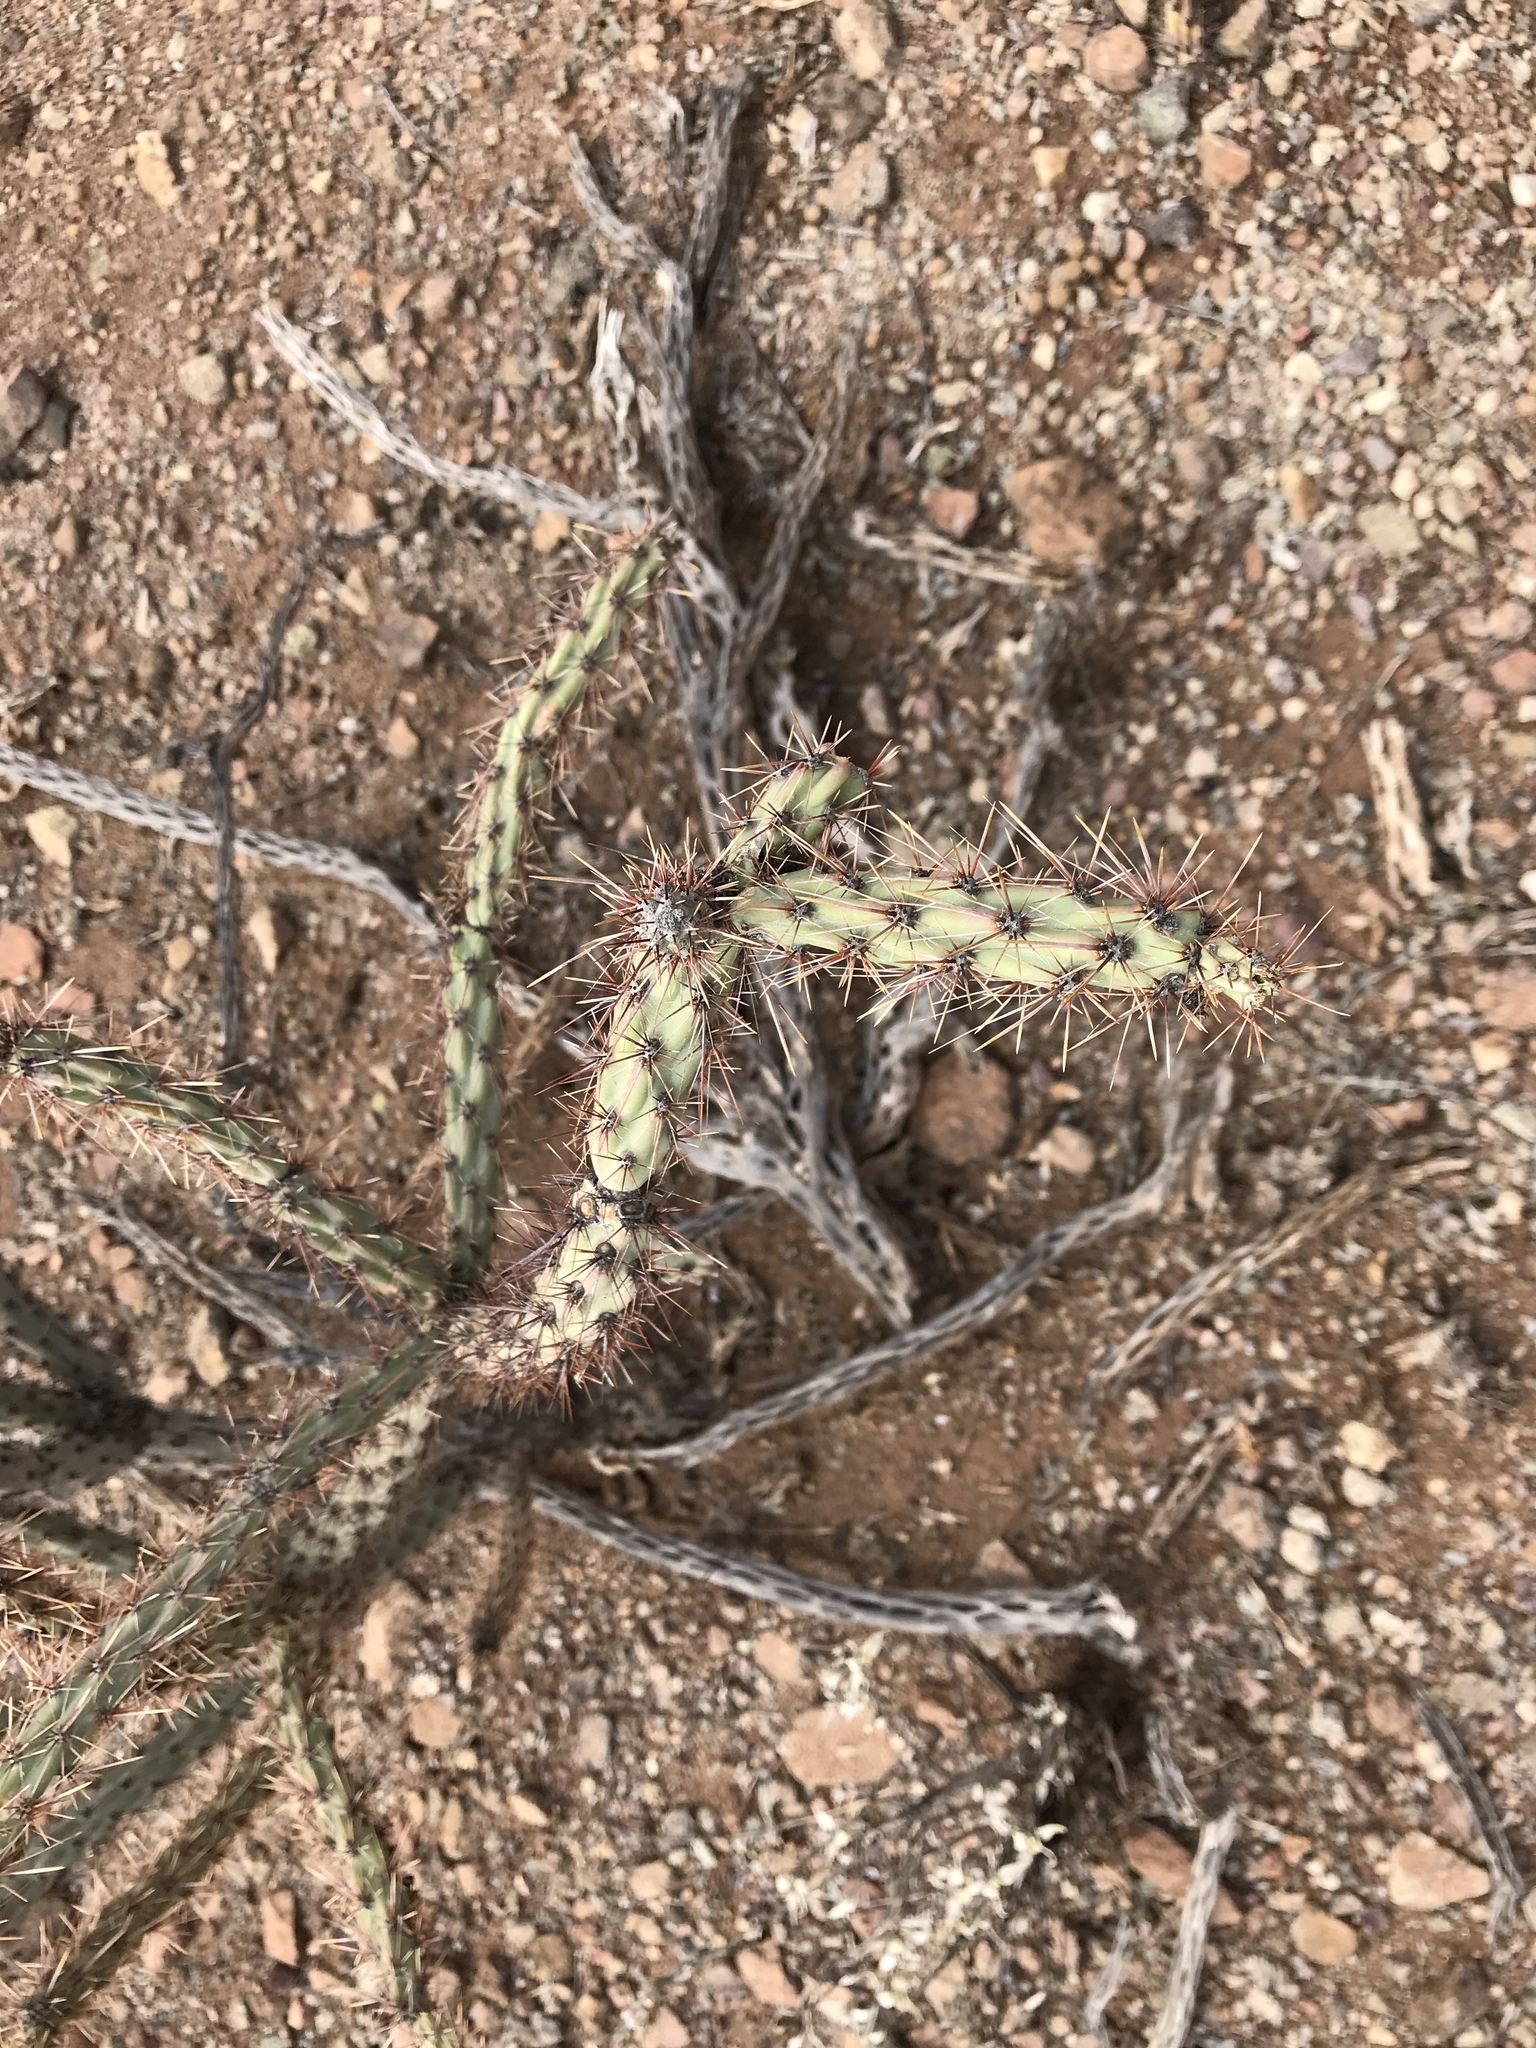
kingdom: Plantae
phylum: Tracheophyta
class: Magnoliopsida
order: Caryophyllales
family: Cactaceae
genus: Cylindropuntia
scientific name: Cylindropuntia thurberi
